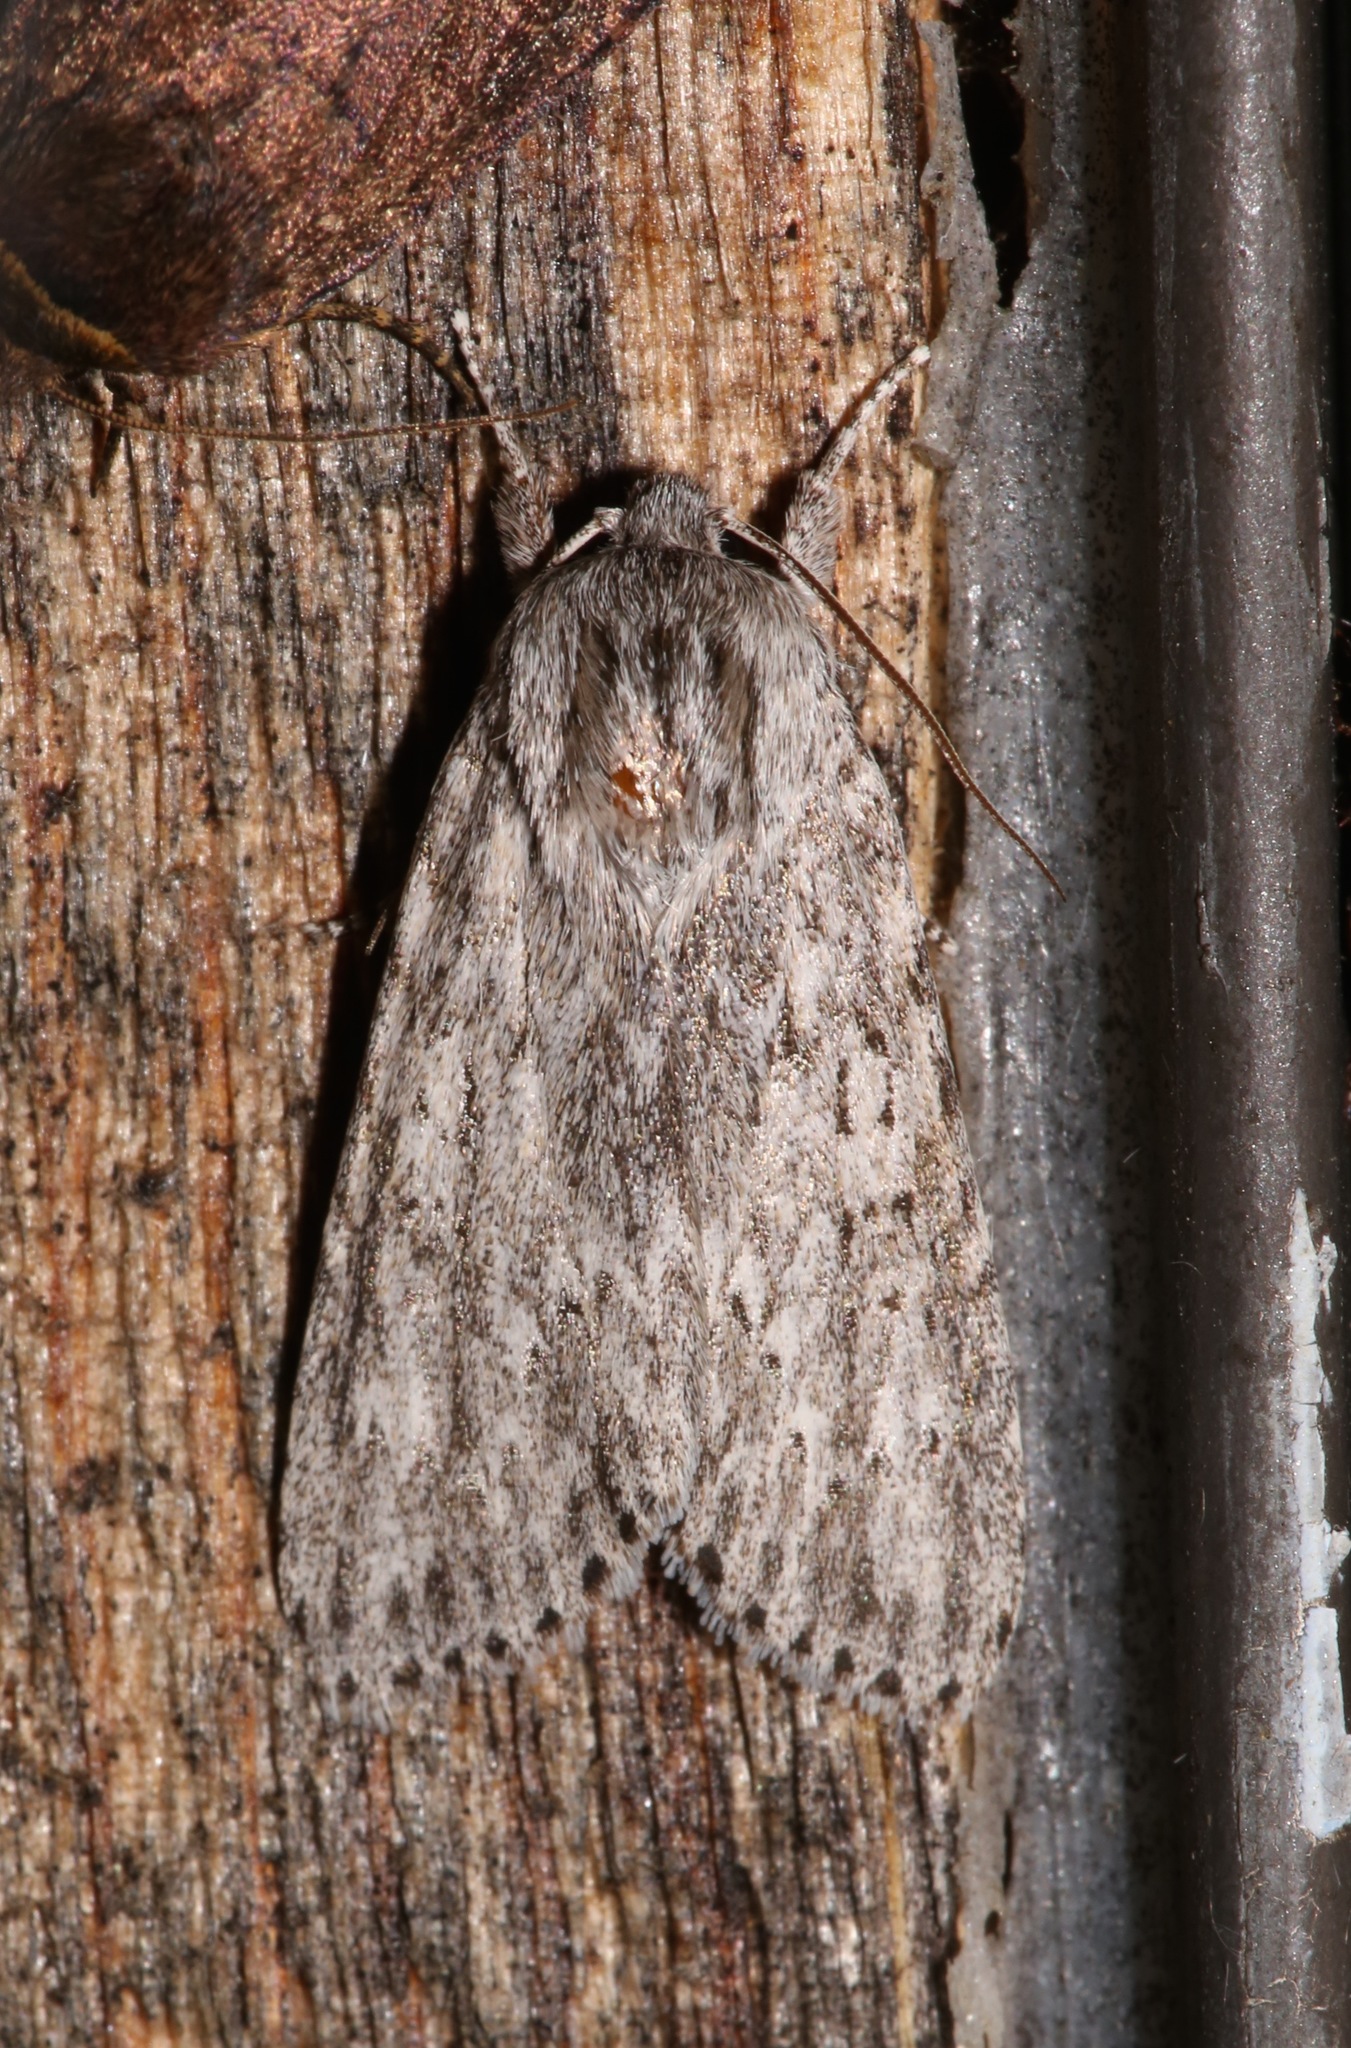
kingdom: Animalia
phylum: Arthropoda
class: Insecta
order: Lepidoptera
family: Noctuidae
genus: Acronicta
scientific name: Acronicta oblinita
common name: Smeared dagger
